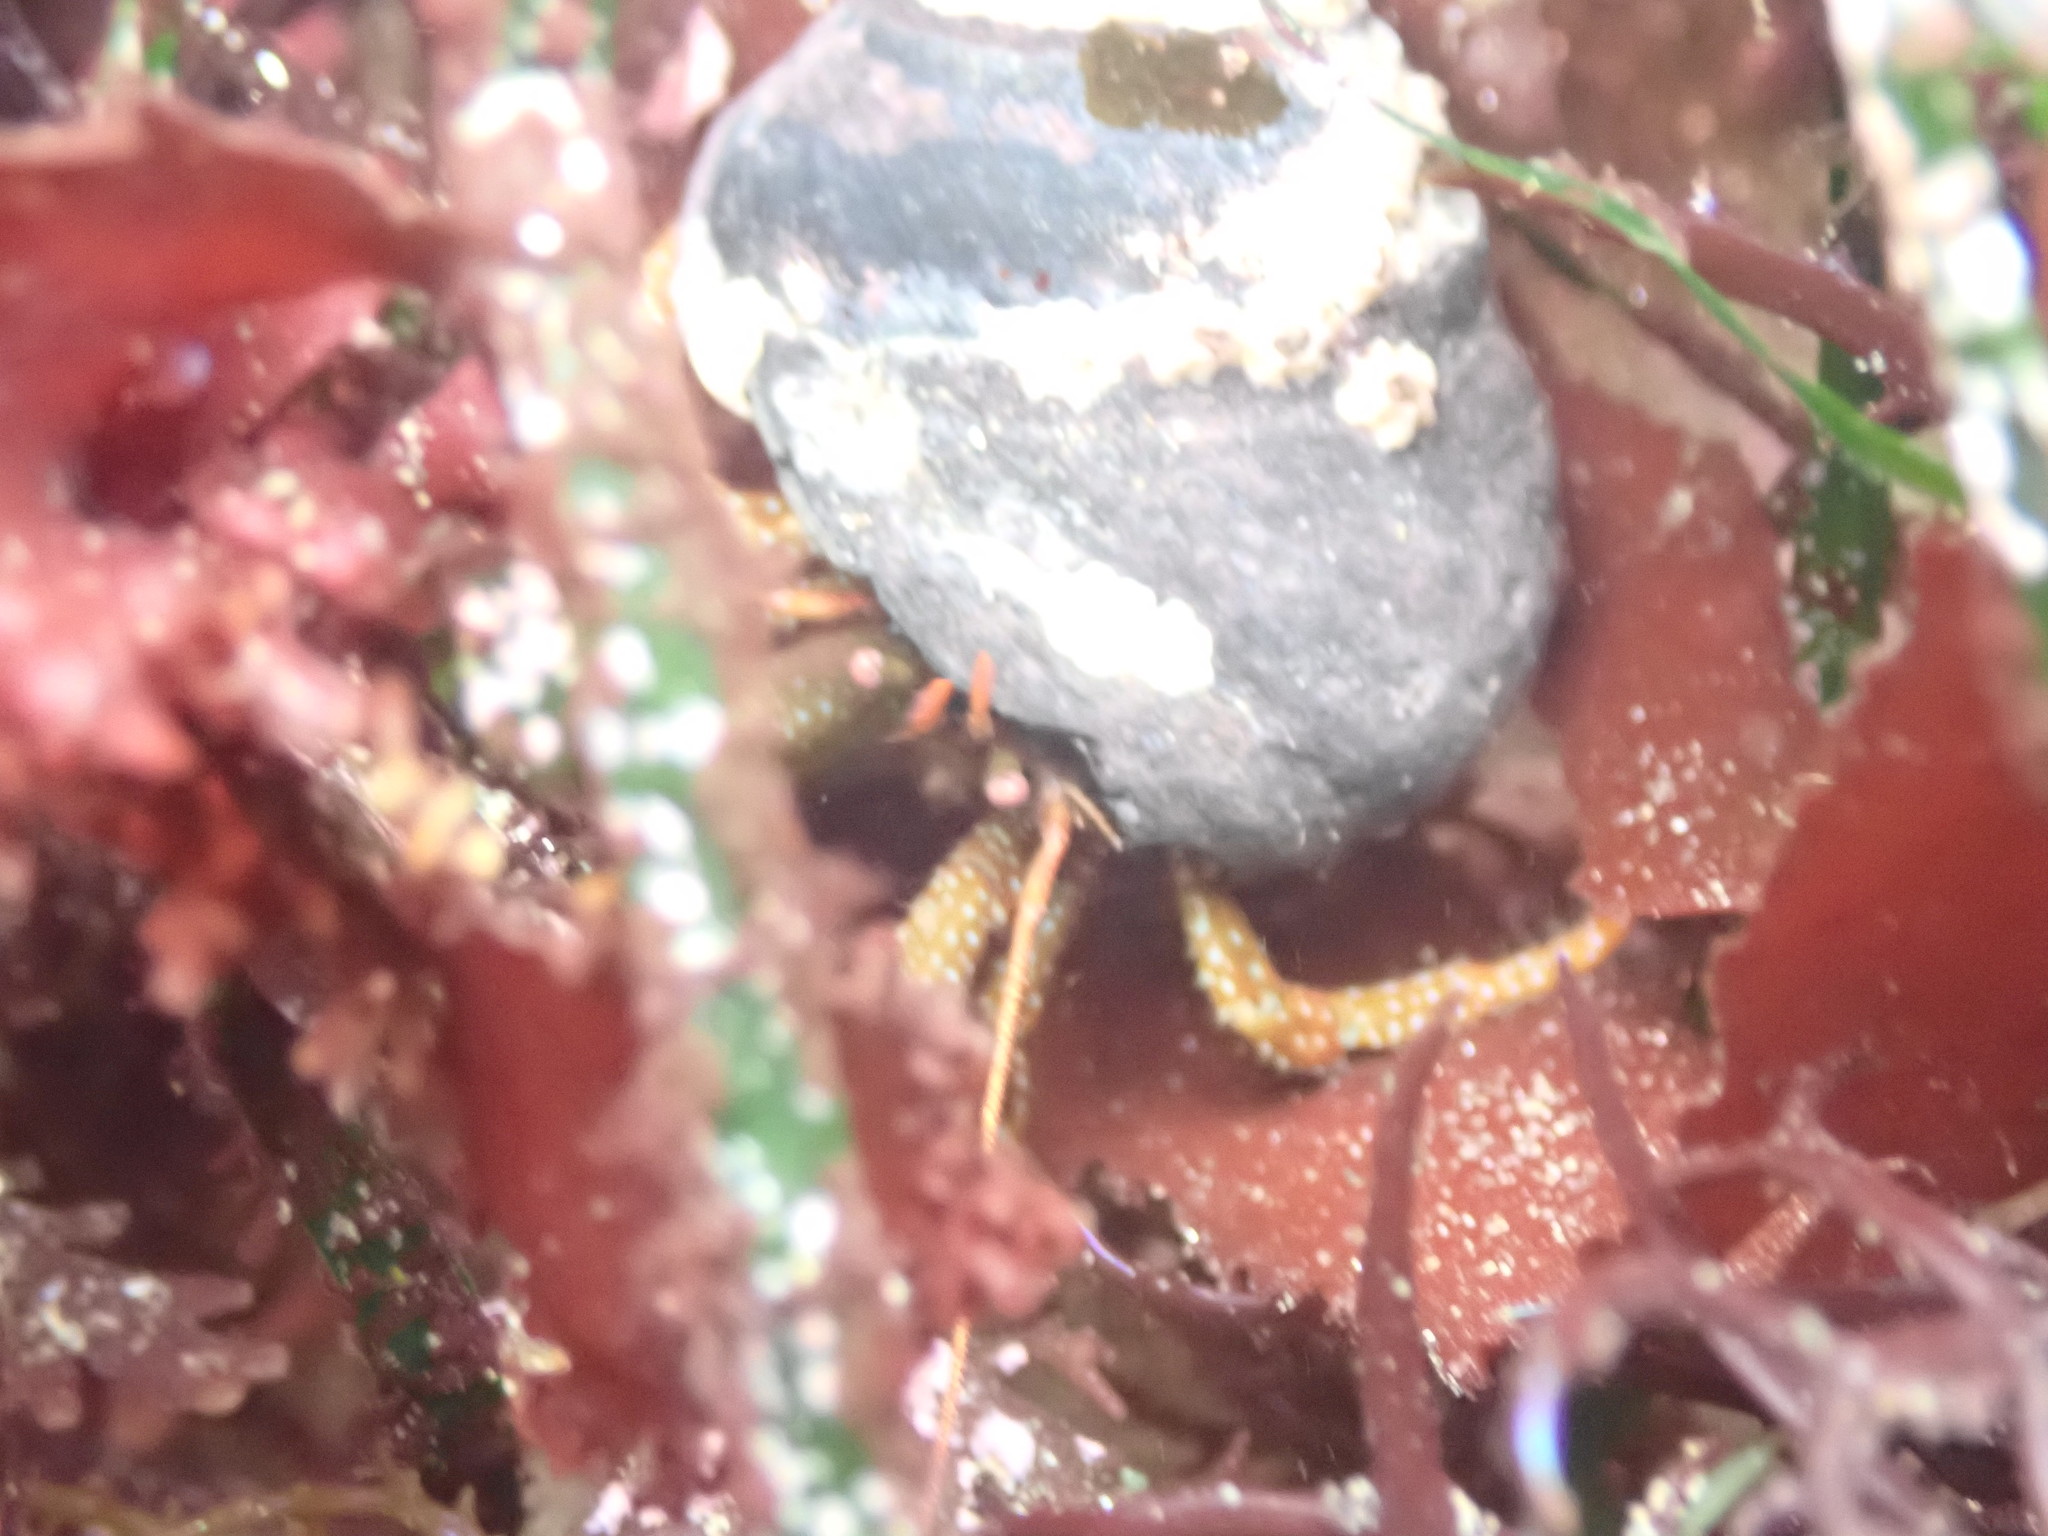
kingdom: Animalia
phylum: Arthropoda
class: Malacostraca
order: Decapoda
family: Paguridae
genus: Pagurus
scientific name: Pagurus granosimanus
